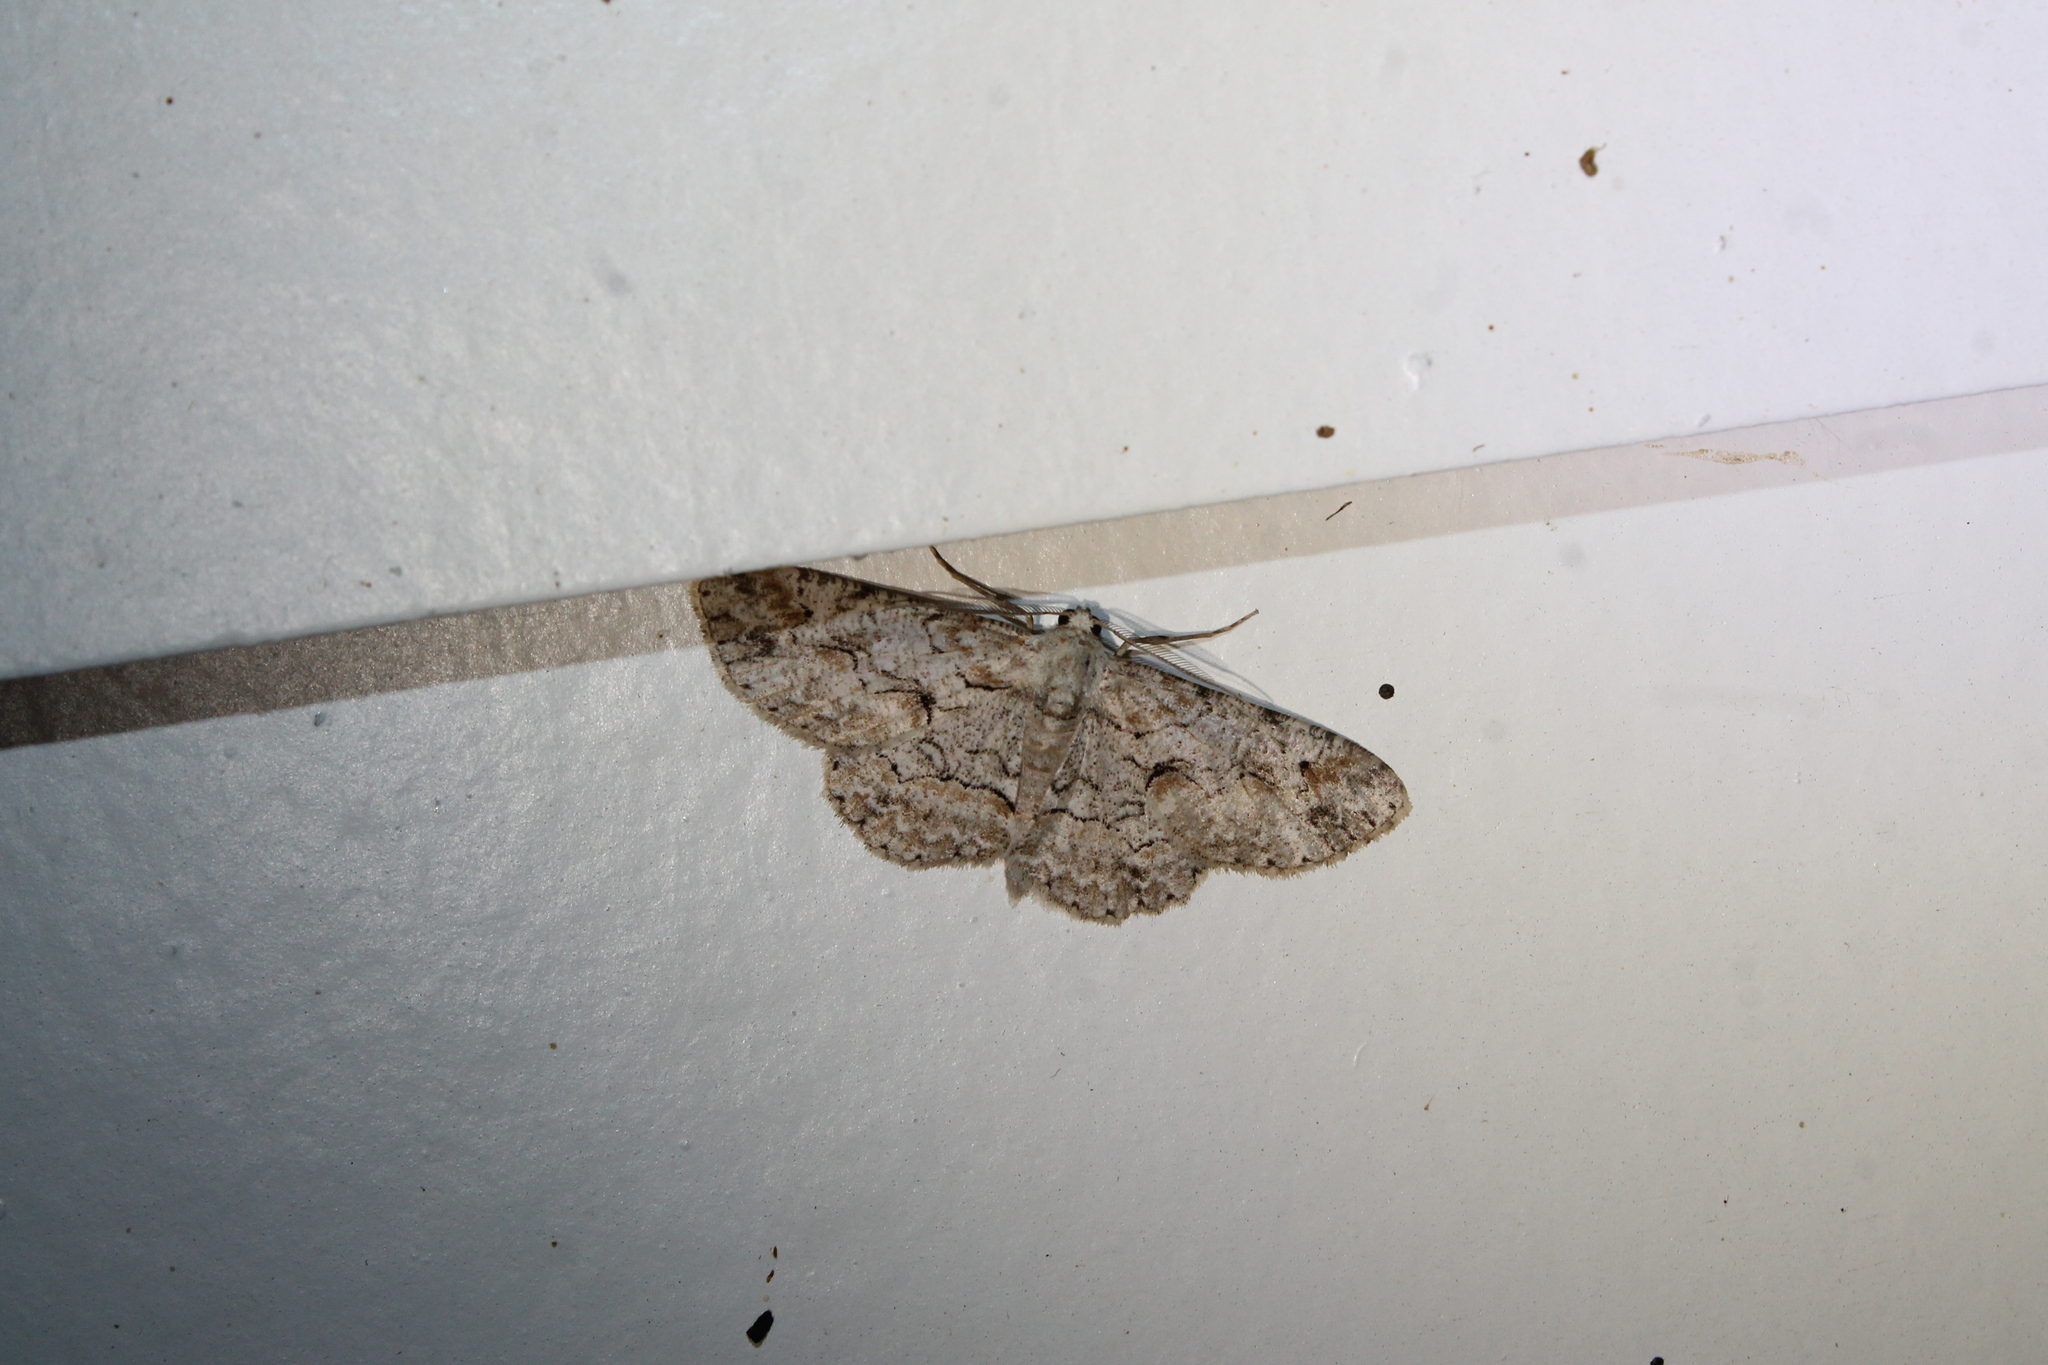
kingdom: Animalia
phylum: Arthropoda
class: Insecta
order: Lepidoptera
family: Geometridae
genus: Iridopsis
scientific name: Iridopsis defectaria
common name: Brown-shaded gray
